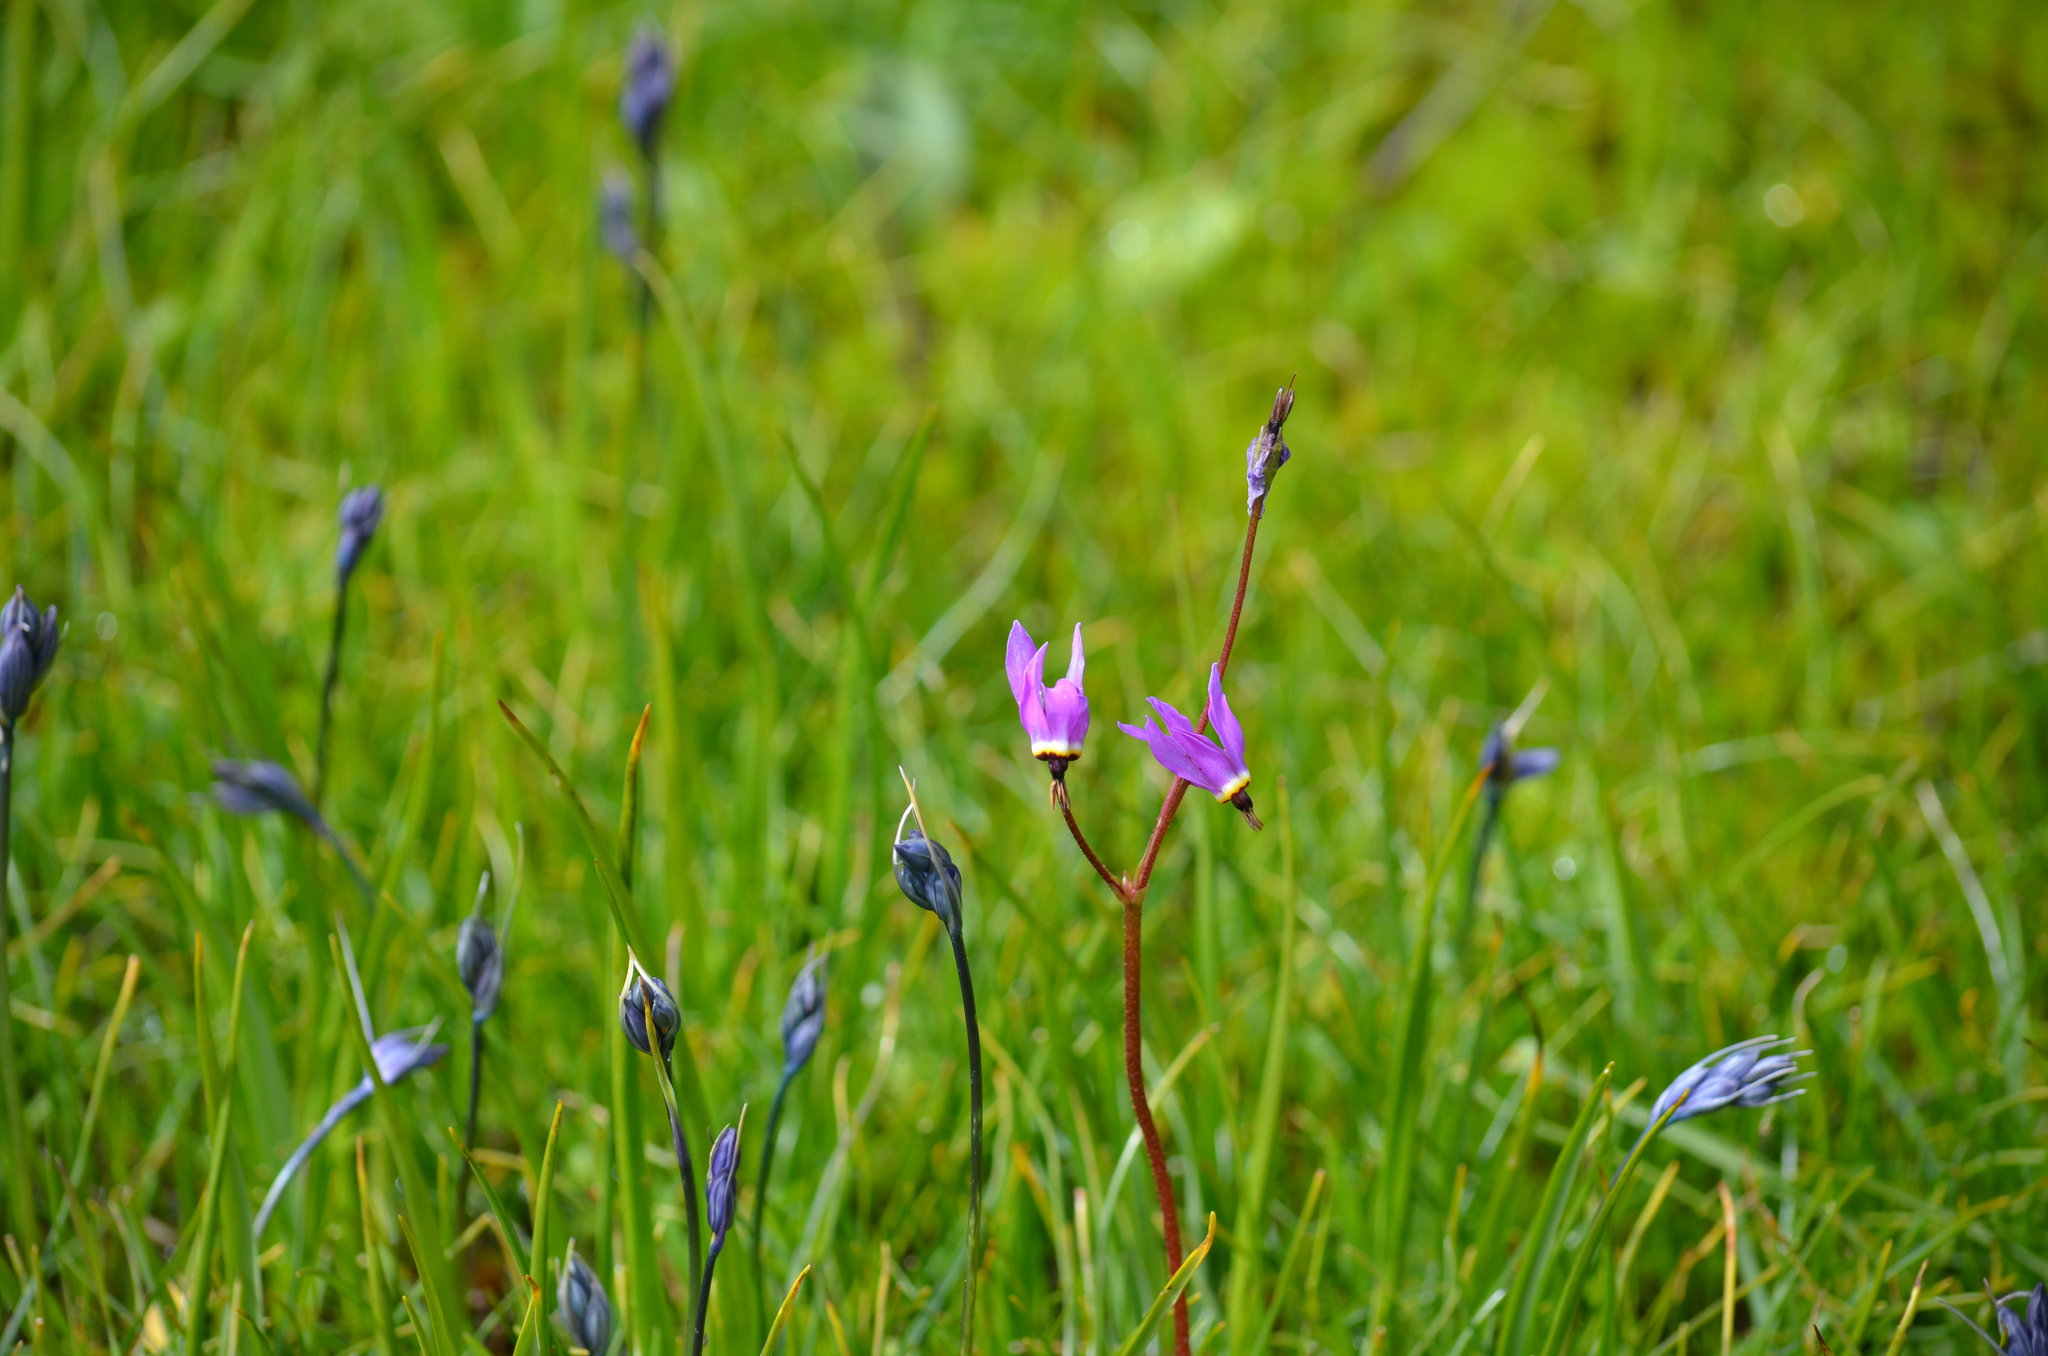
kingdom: Plantae
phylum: Tracheophyta
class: Magnoliopsida
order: Ericales
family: Primulaceae
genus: Dodecatheon
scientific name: Dodecatheon hendersonii
